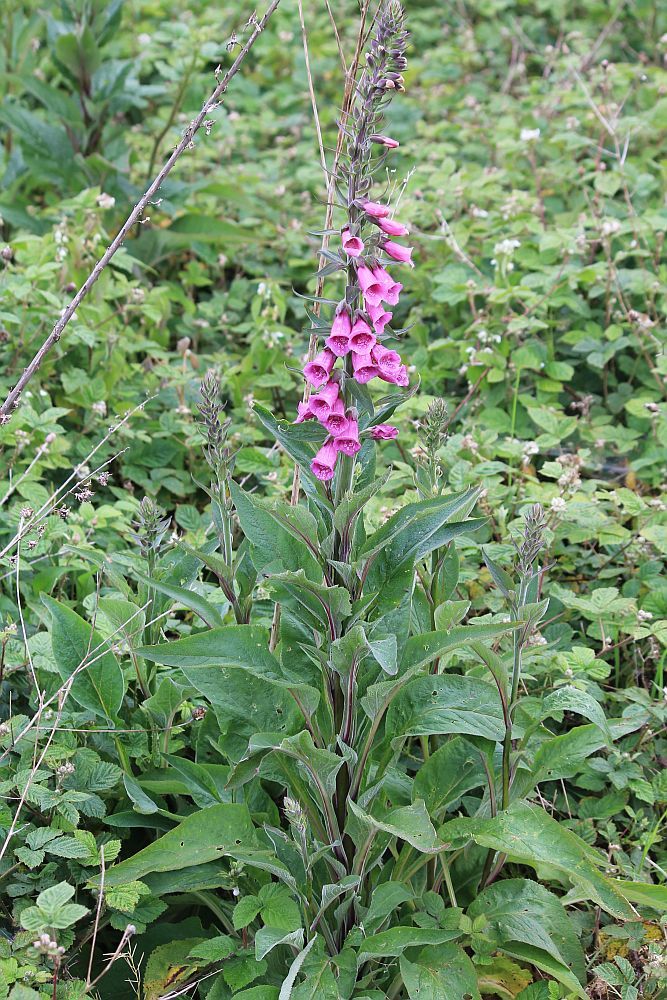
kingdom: Plantae
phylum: Tracheophyta
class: Magnoliopsida
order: Lamiales
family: Plantaginaceae
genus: Digitalis
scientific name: Digitalis purpurea
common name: Foxglove
